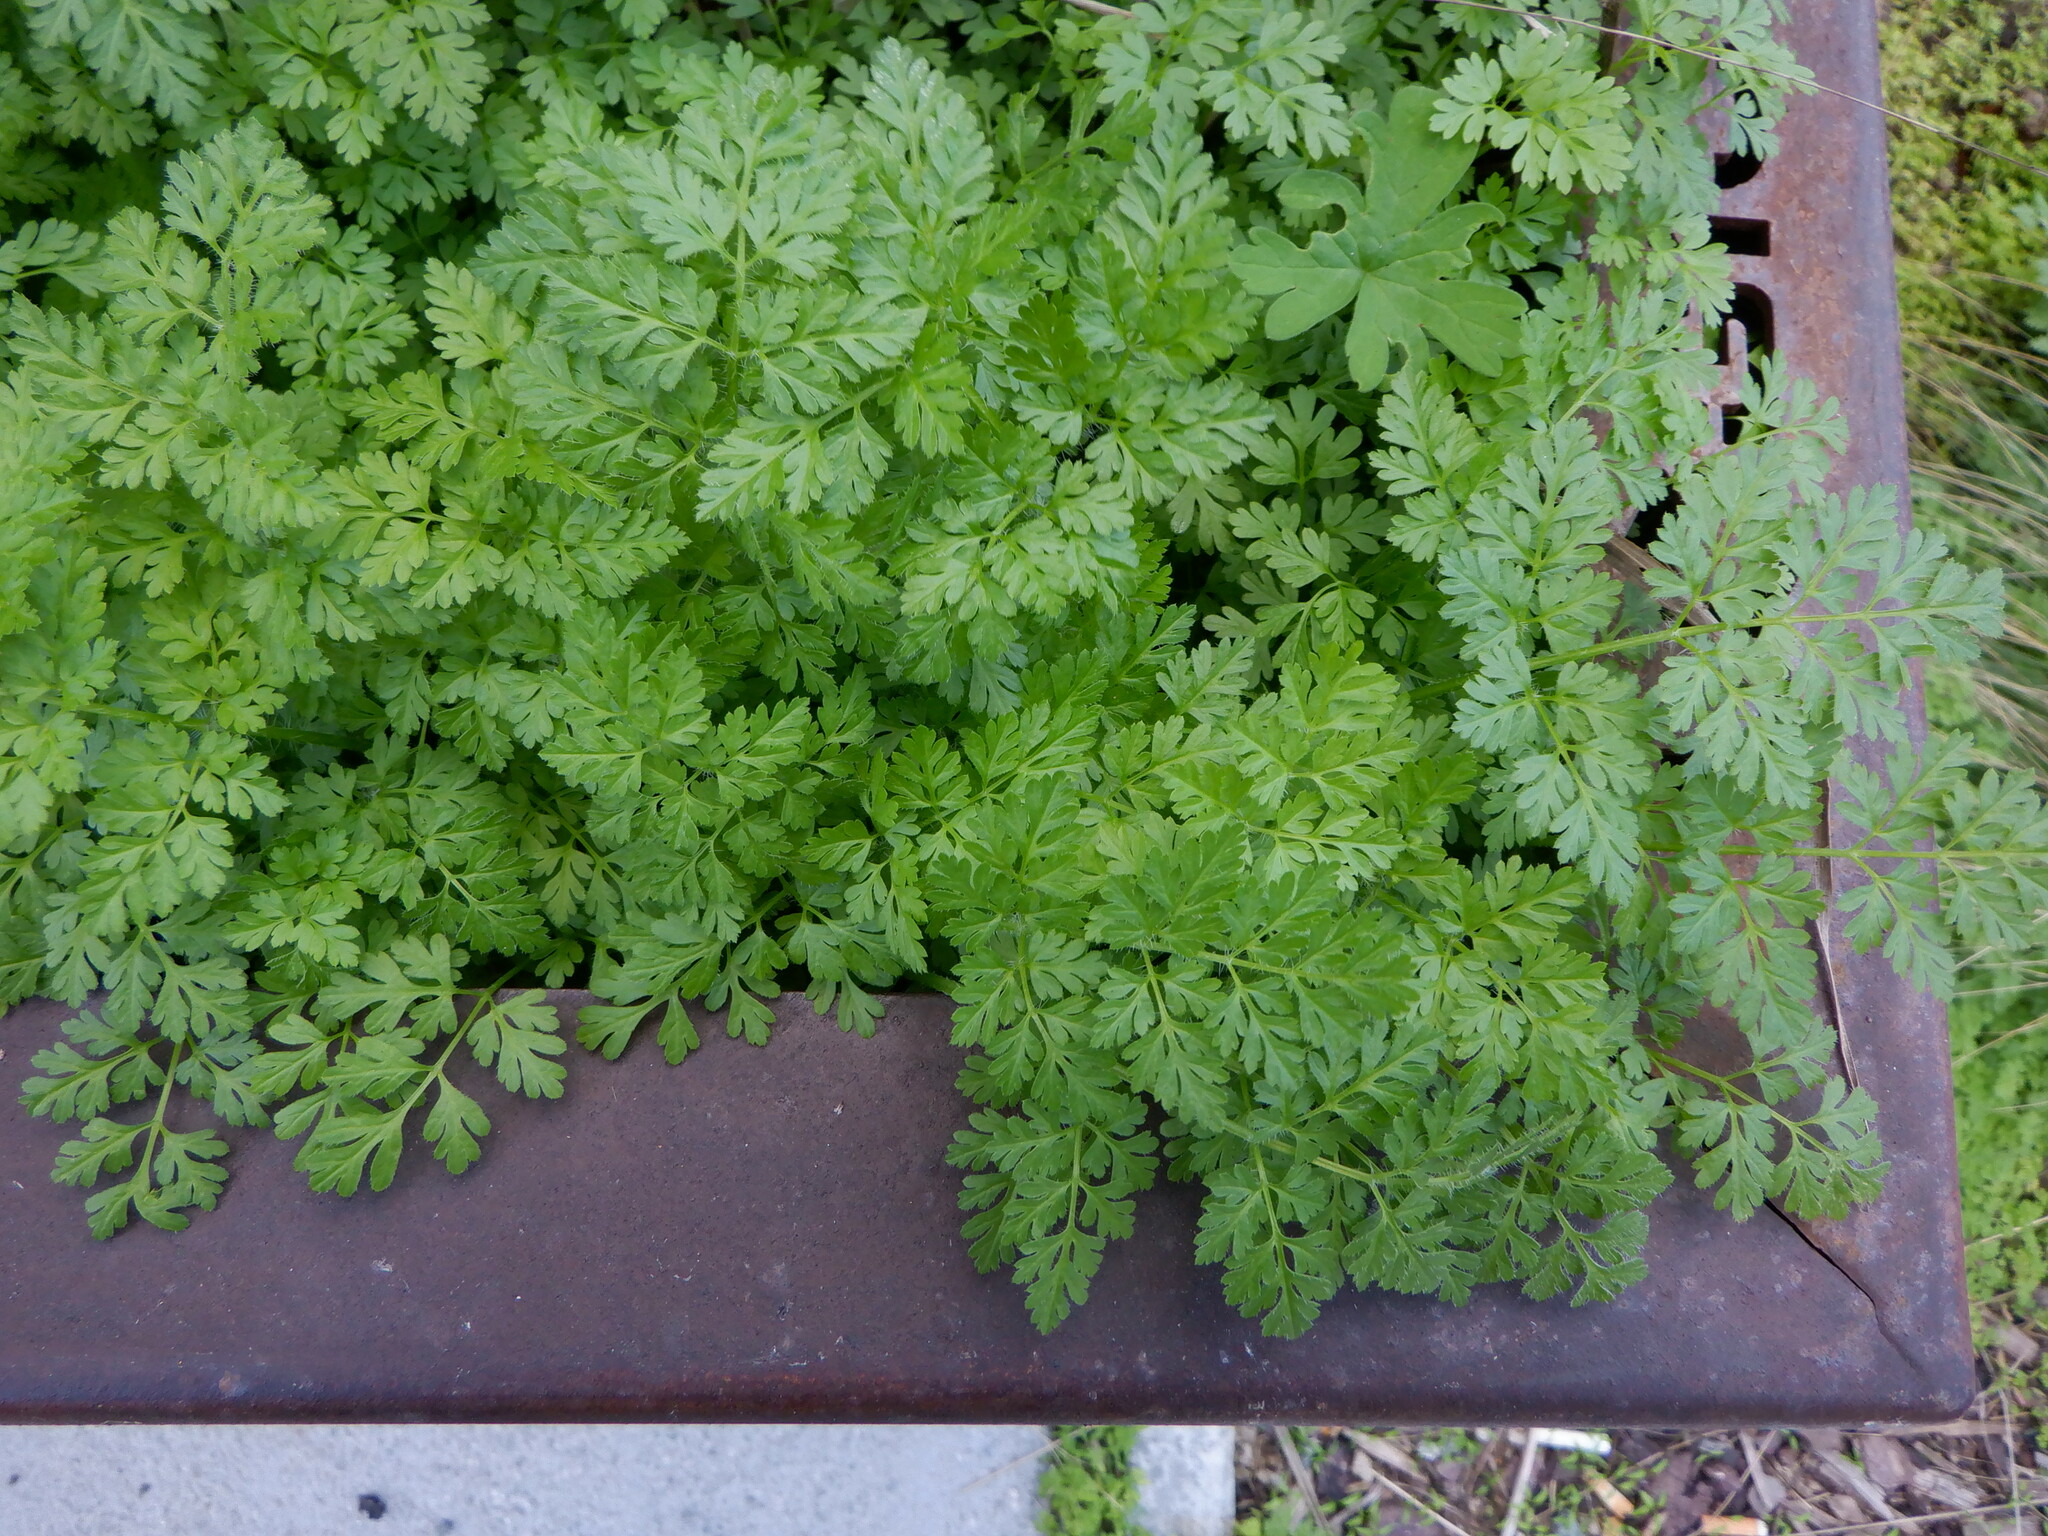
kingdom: Plantae
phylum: Tracheophyta
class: Magnoliopsida
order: Asterales
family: Asteraceae
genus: Tanacetum
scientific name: Tanacetum parthenium
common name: Feverfew
